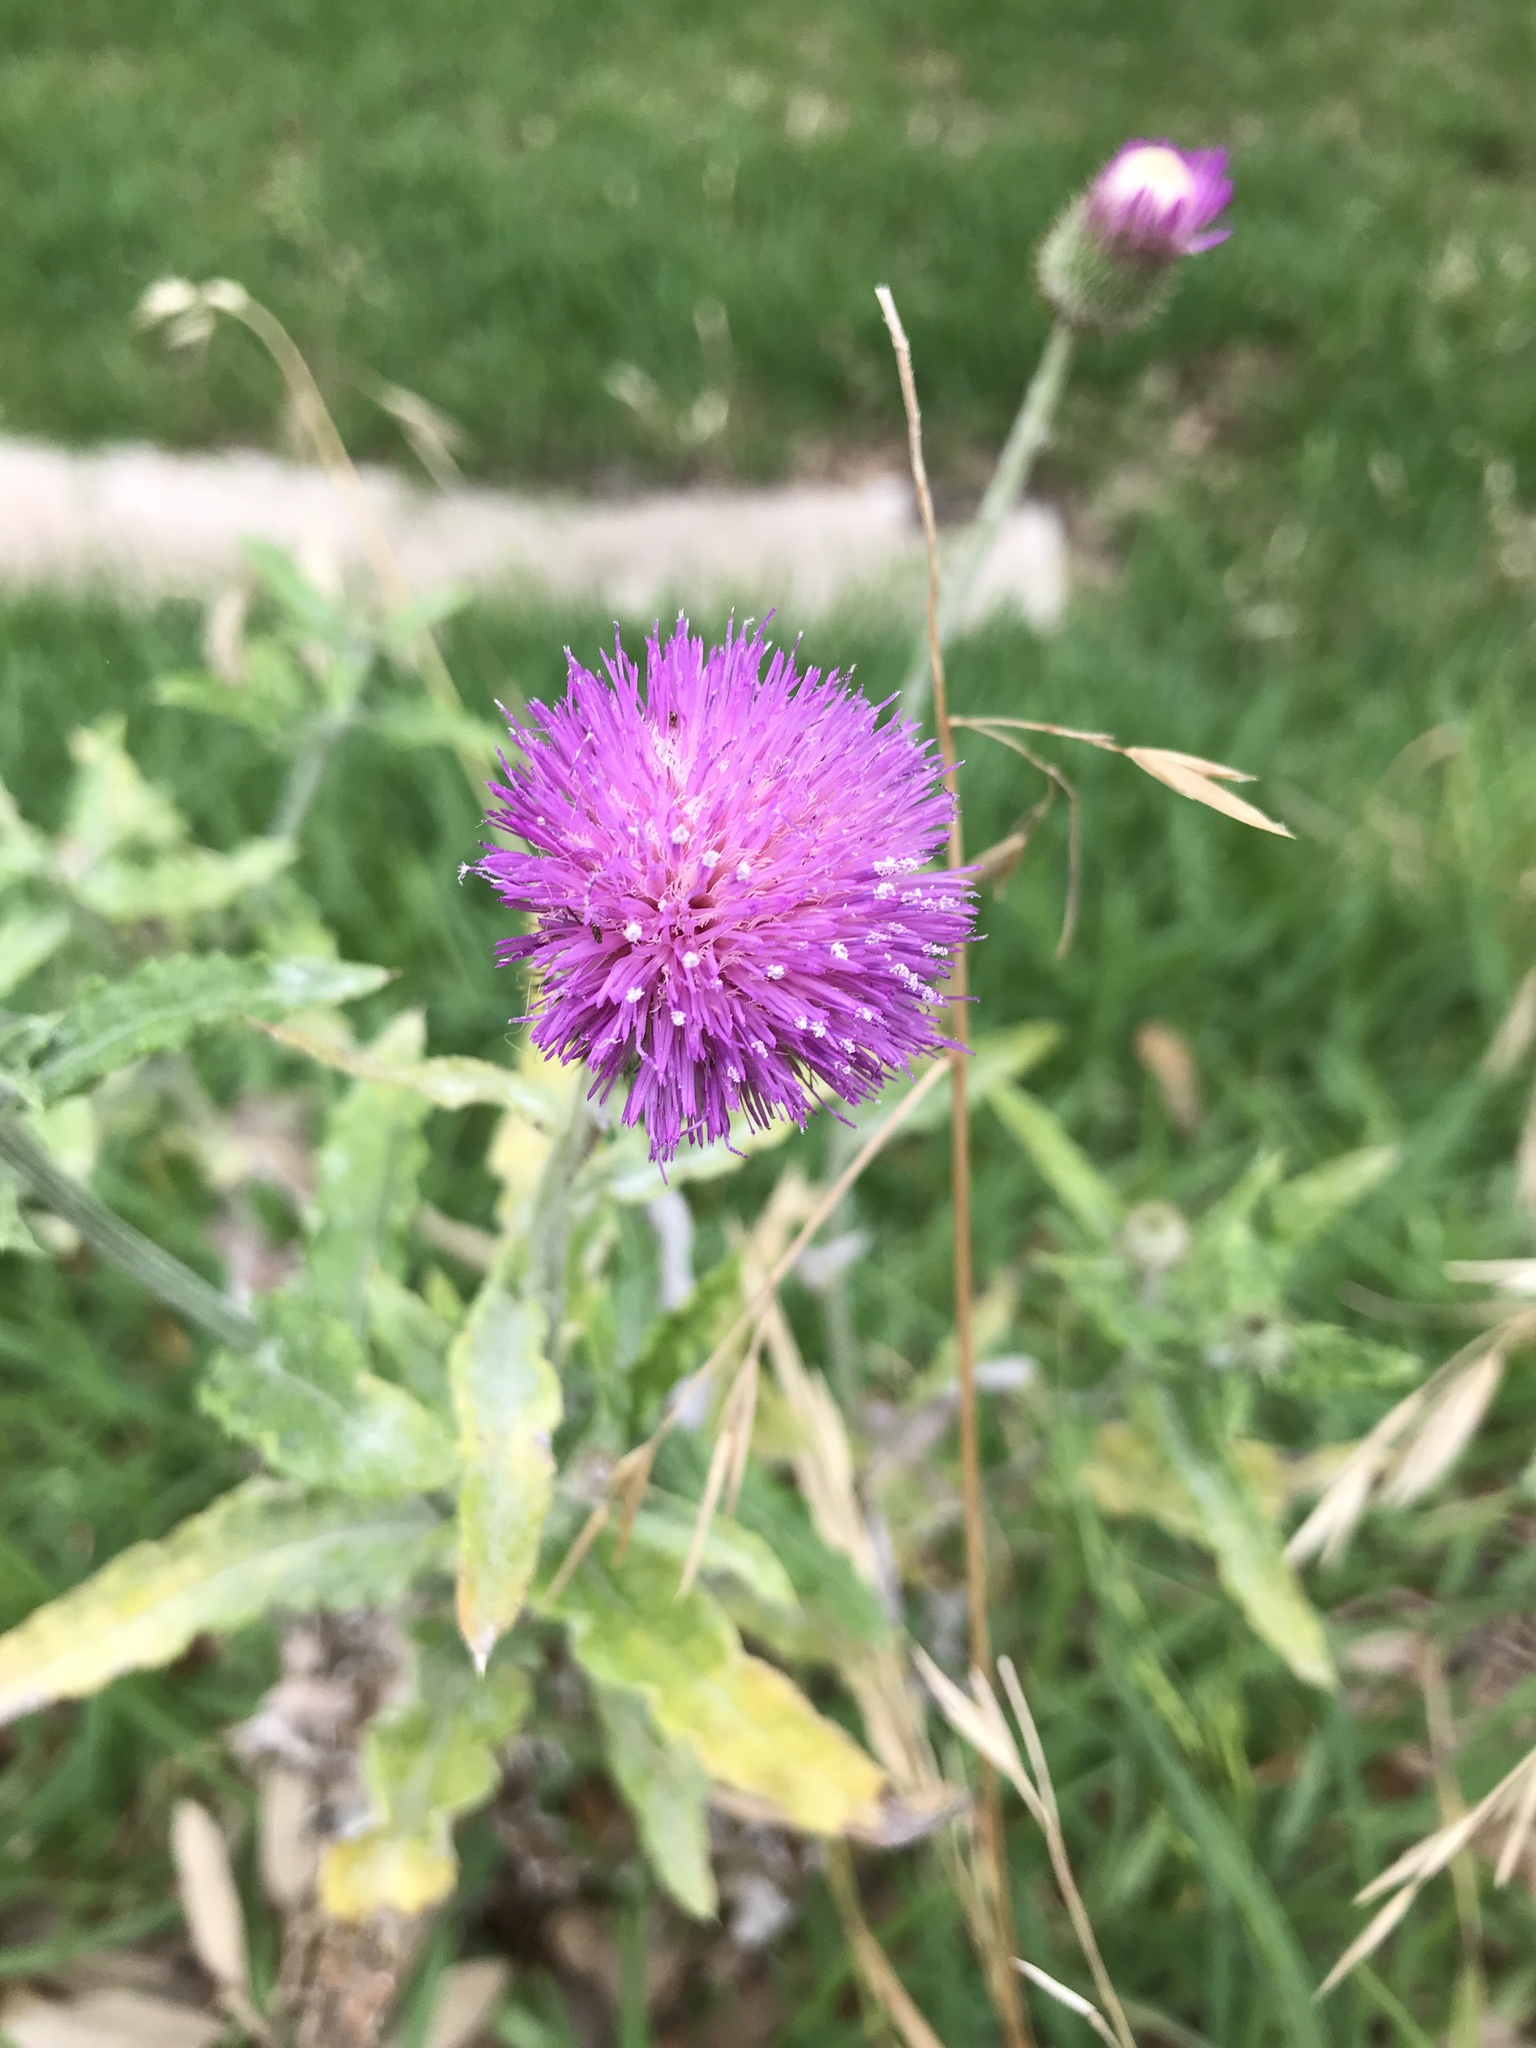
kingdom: Plantae
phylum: Tracheophyta
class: Magnoliopsida
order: Asterales
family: Asteraceae
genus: Cirsium
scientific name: Cirsium texanum
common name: Texas purple thistle
